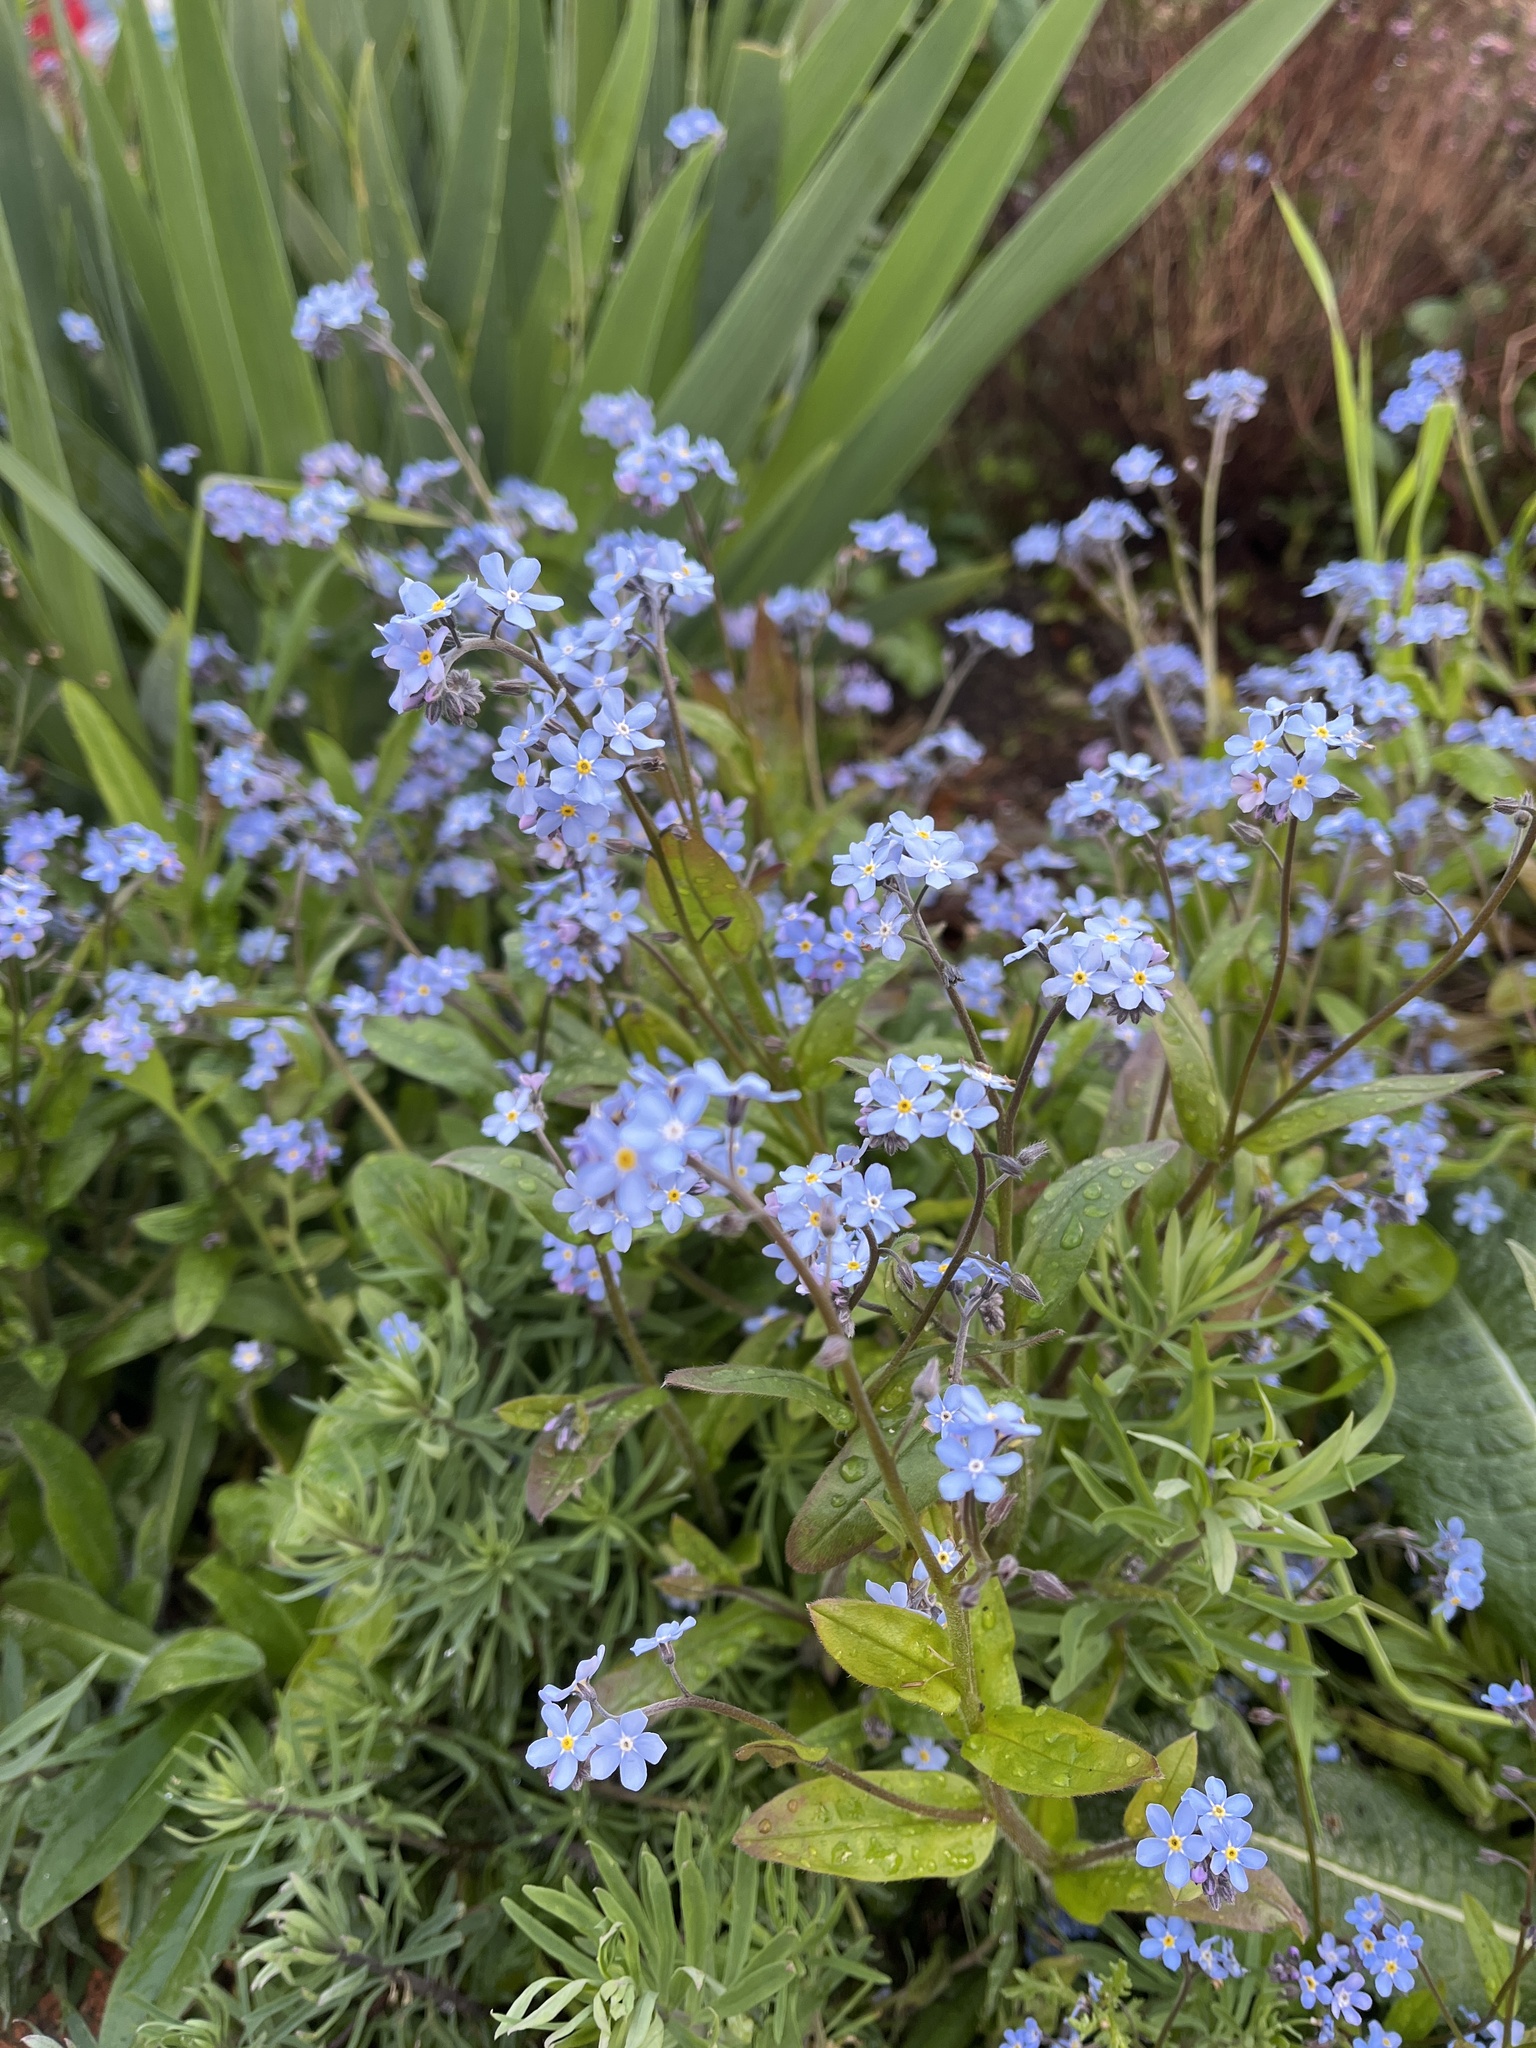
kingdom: Plantae
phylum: Tracheophyta
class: Magnoliopsida
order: Boraginales
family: Boraginaceae
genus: Myosotis
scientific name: Myosotis sylvatica
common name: Wood forget-me-not
